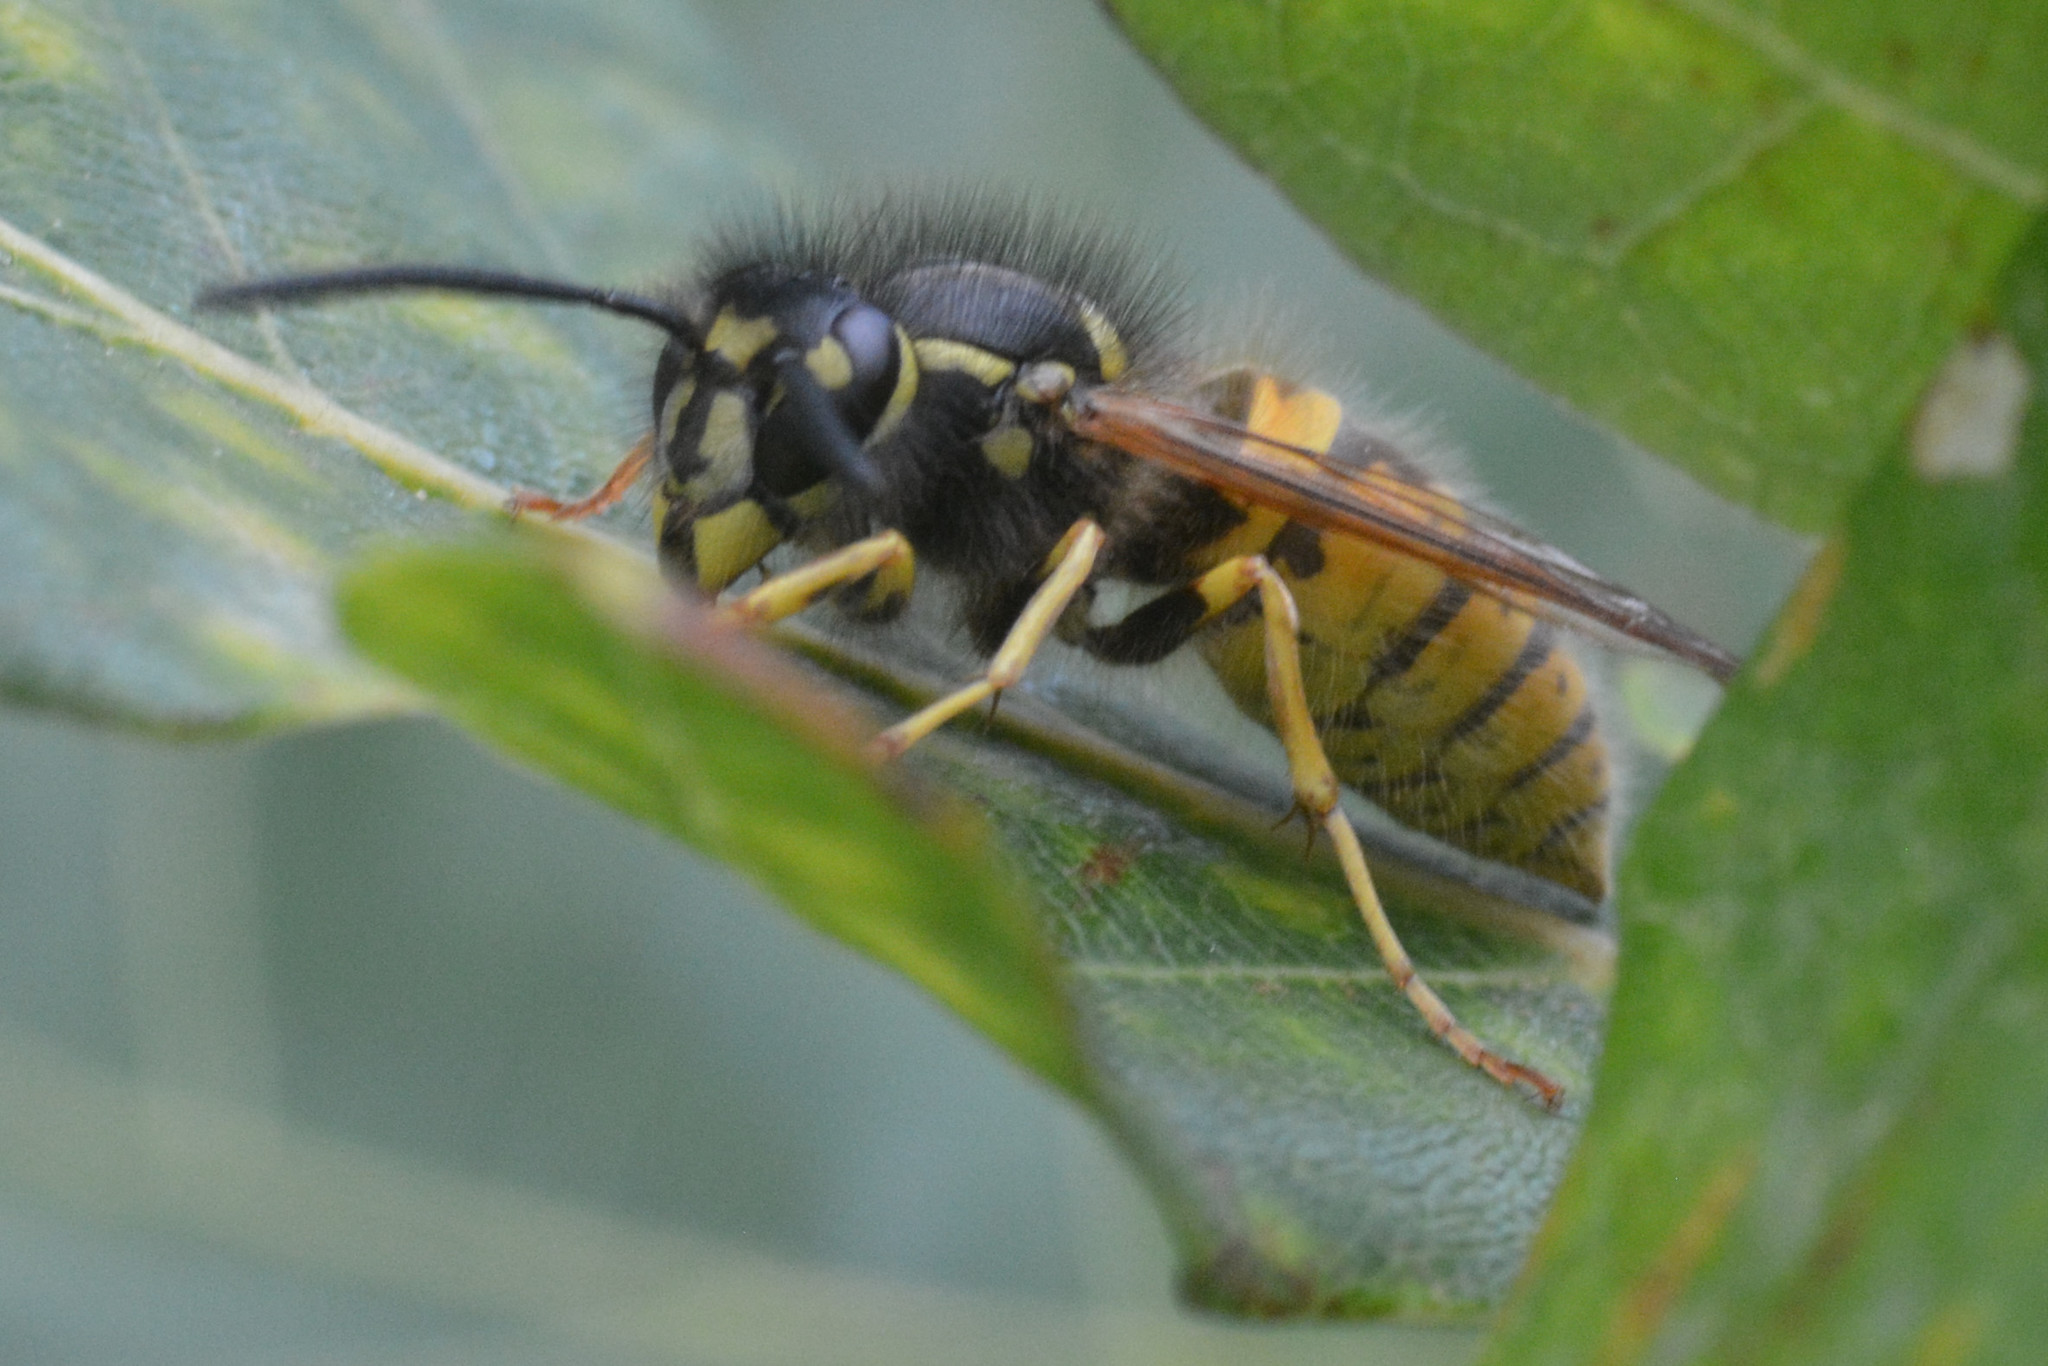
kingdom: Animalia
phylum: Arthropoda
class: Insecta
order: Hymenoptera
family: Vespidae
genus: Vespula
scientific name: Vespula vulgaris
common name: Common wasp
